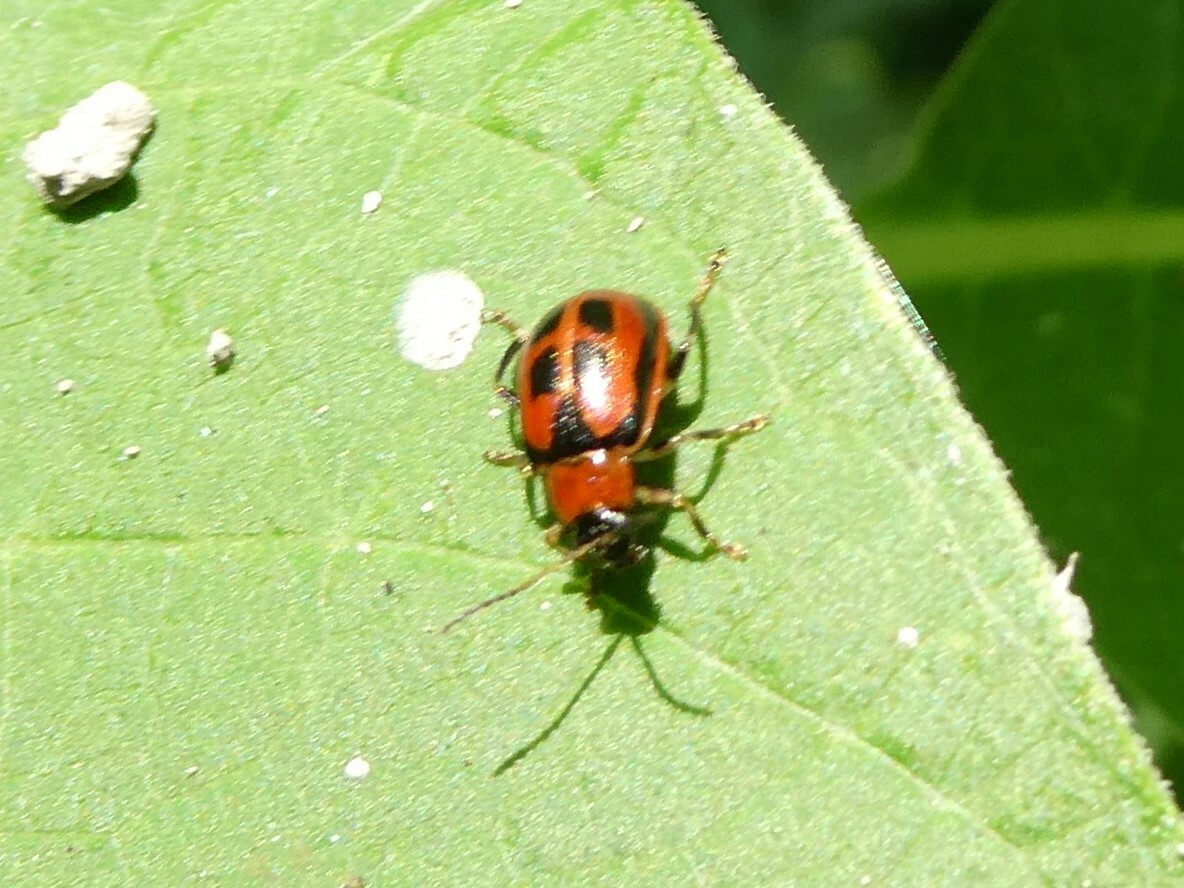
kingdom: Animalia
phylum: Arthropoda
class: Insecta
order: Coleoptera
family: Chrysomelidae
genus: Cerotoma
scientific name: Cerotoma trifurcata
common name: Bean leaf beetle
